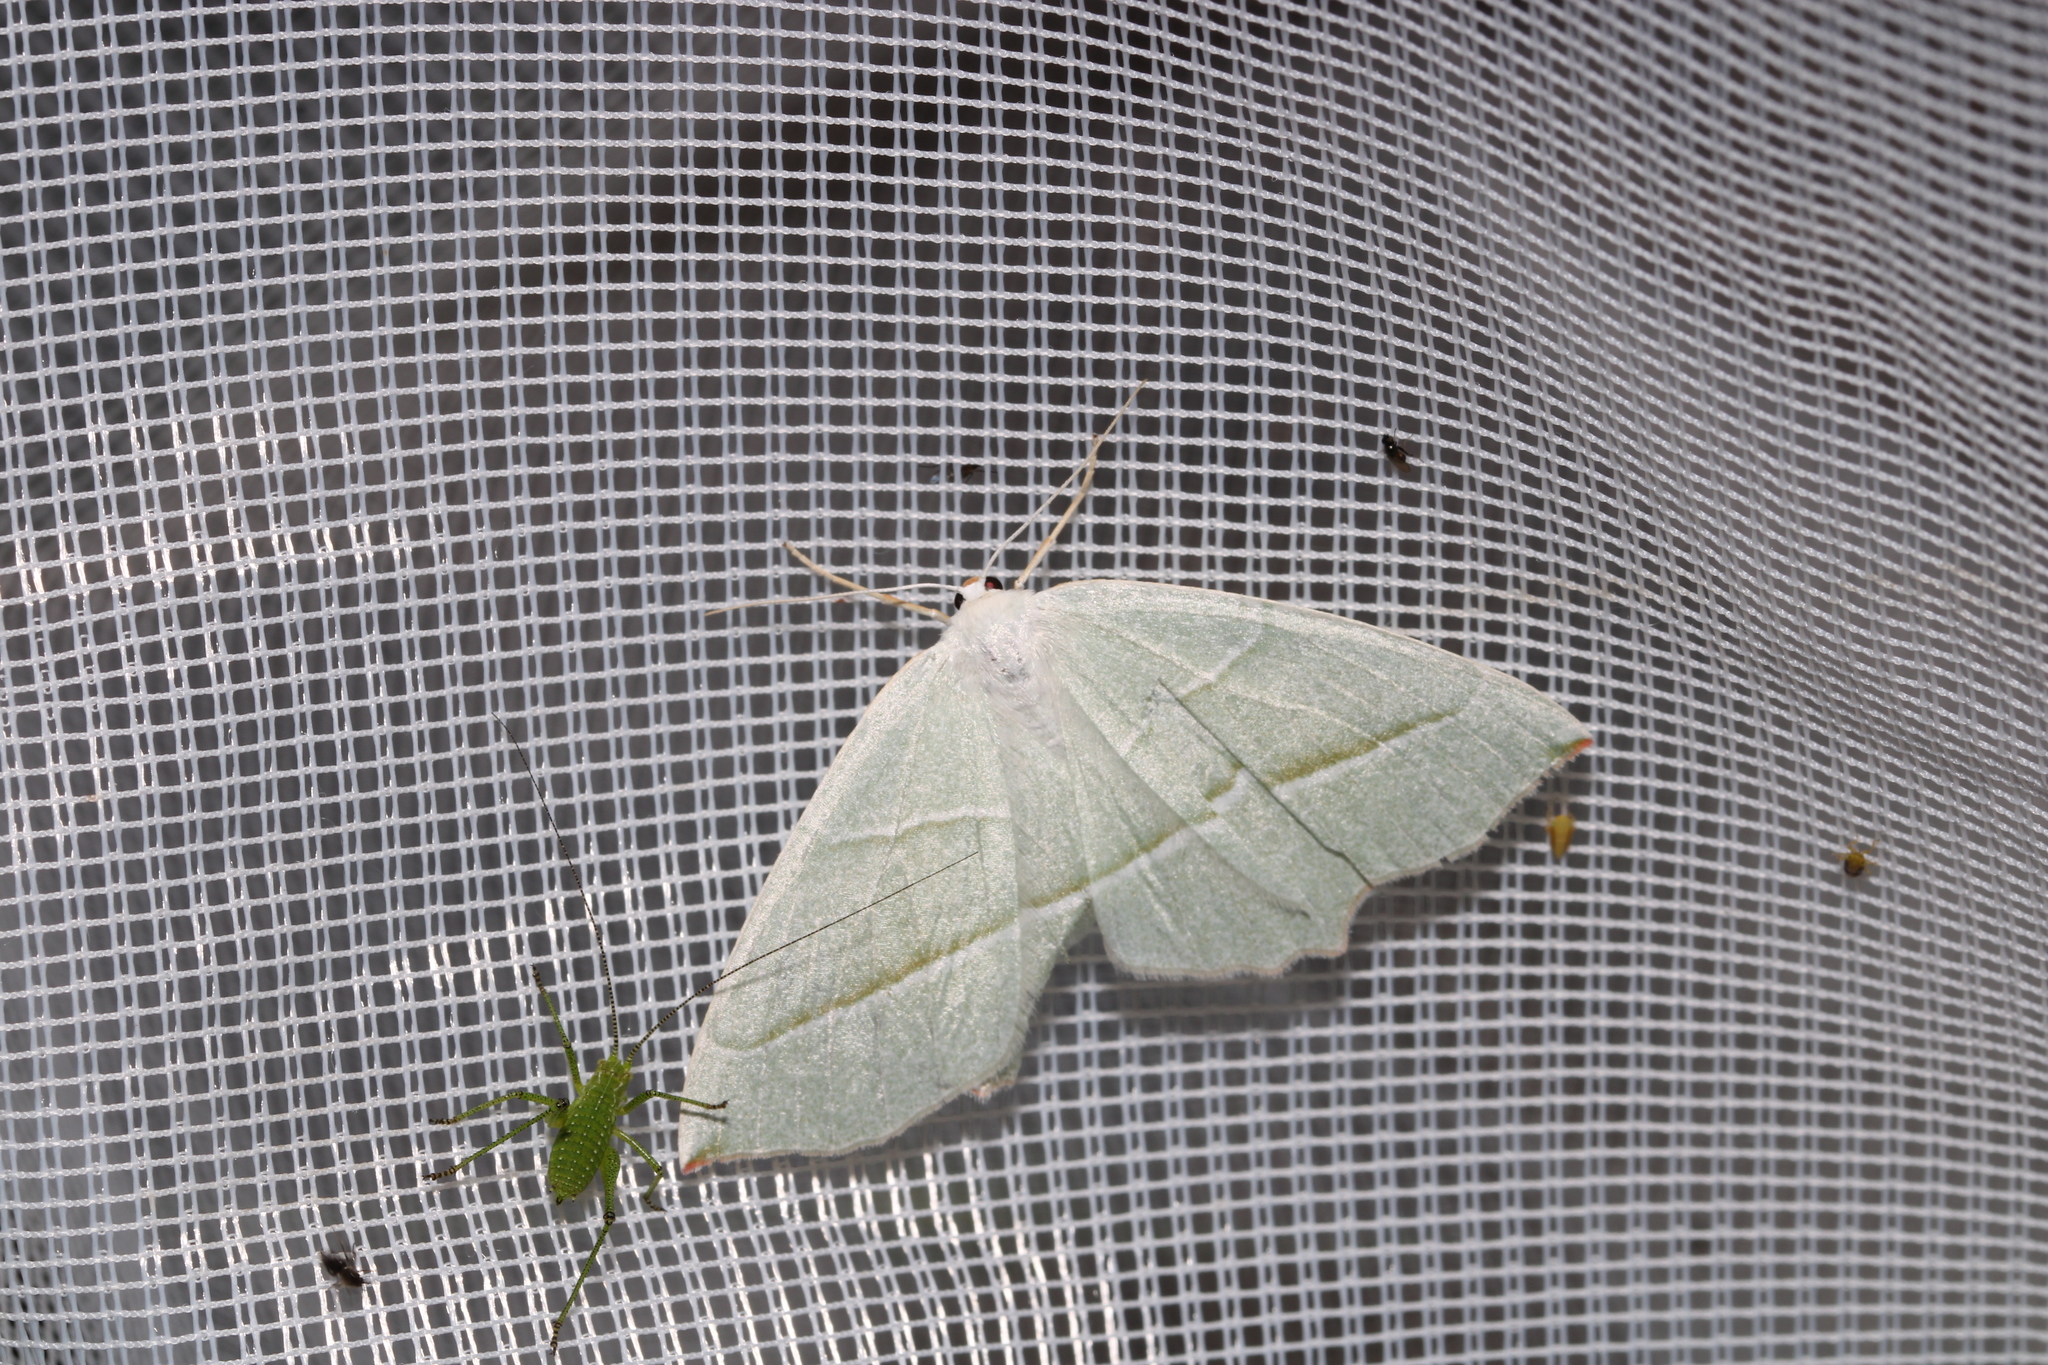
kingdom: Animalia
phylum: Arthropoda
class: Insecta
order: Lepidoptera
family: Geometridae
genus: Campaea
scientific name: Campaea margaritaria
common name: Light emerald
